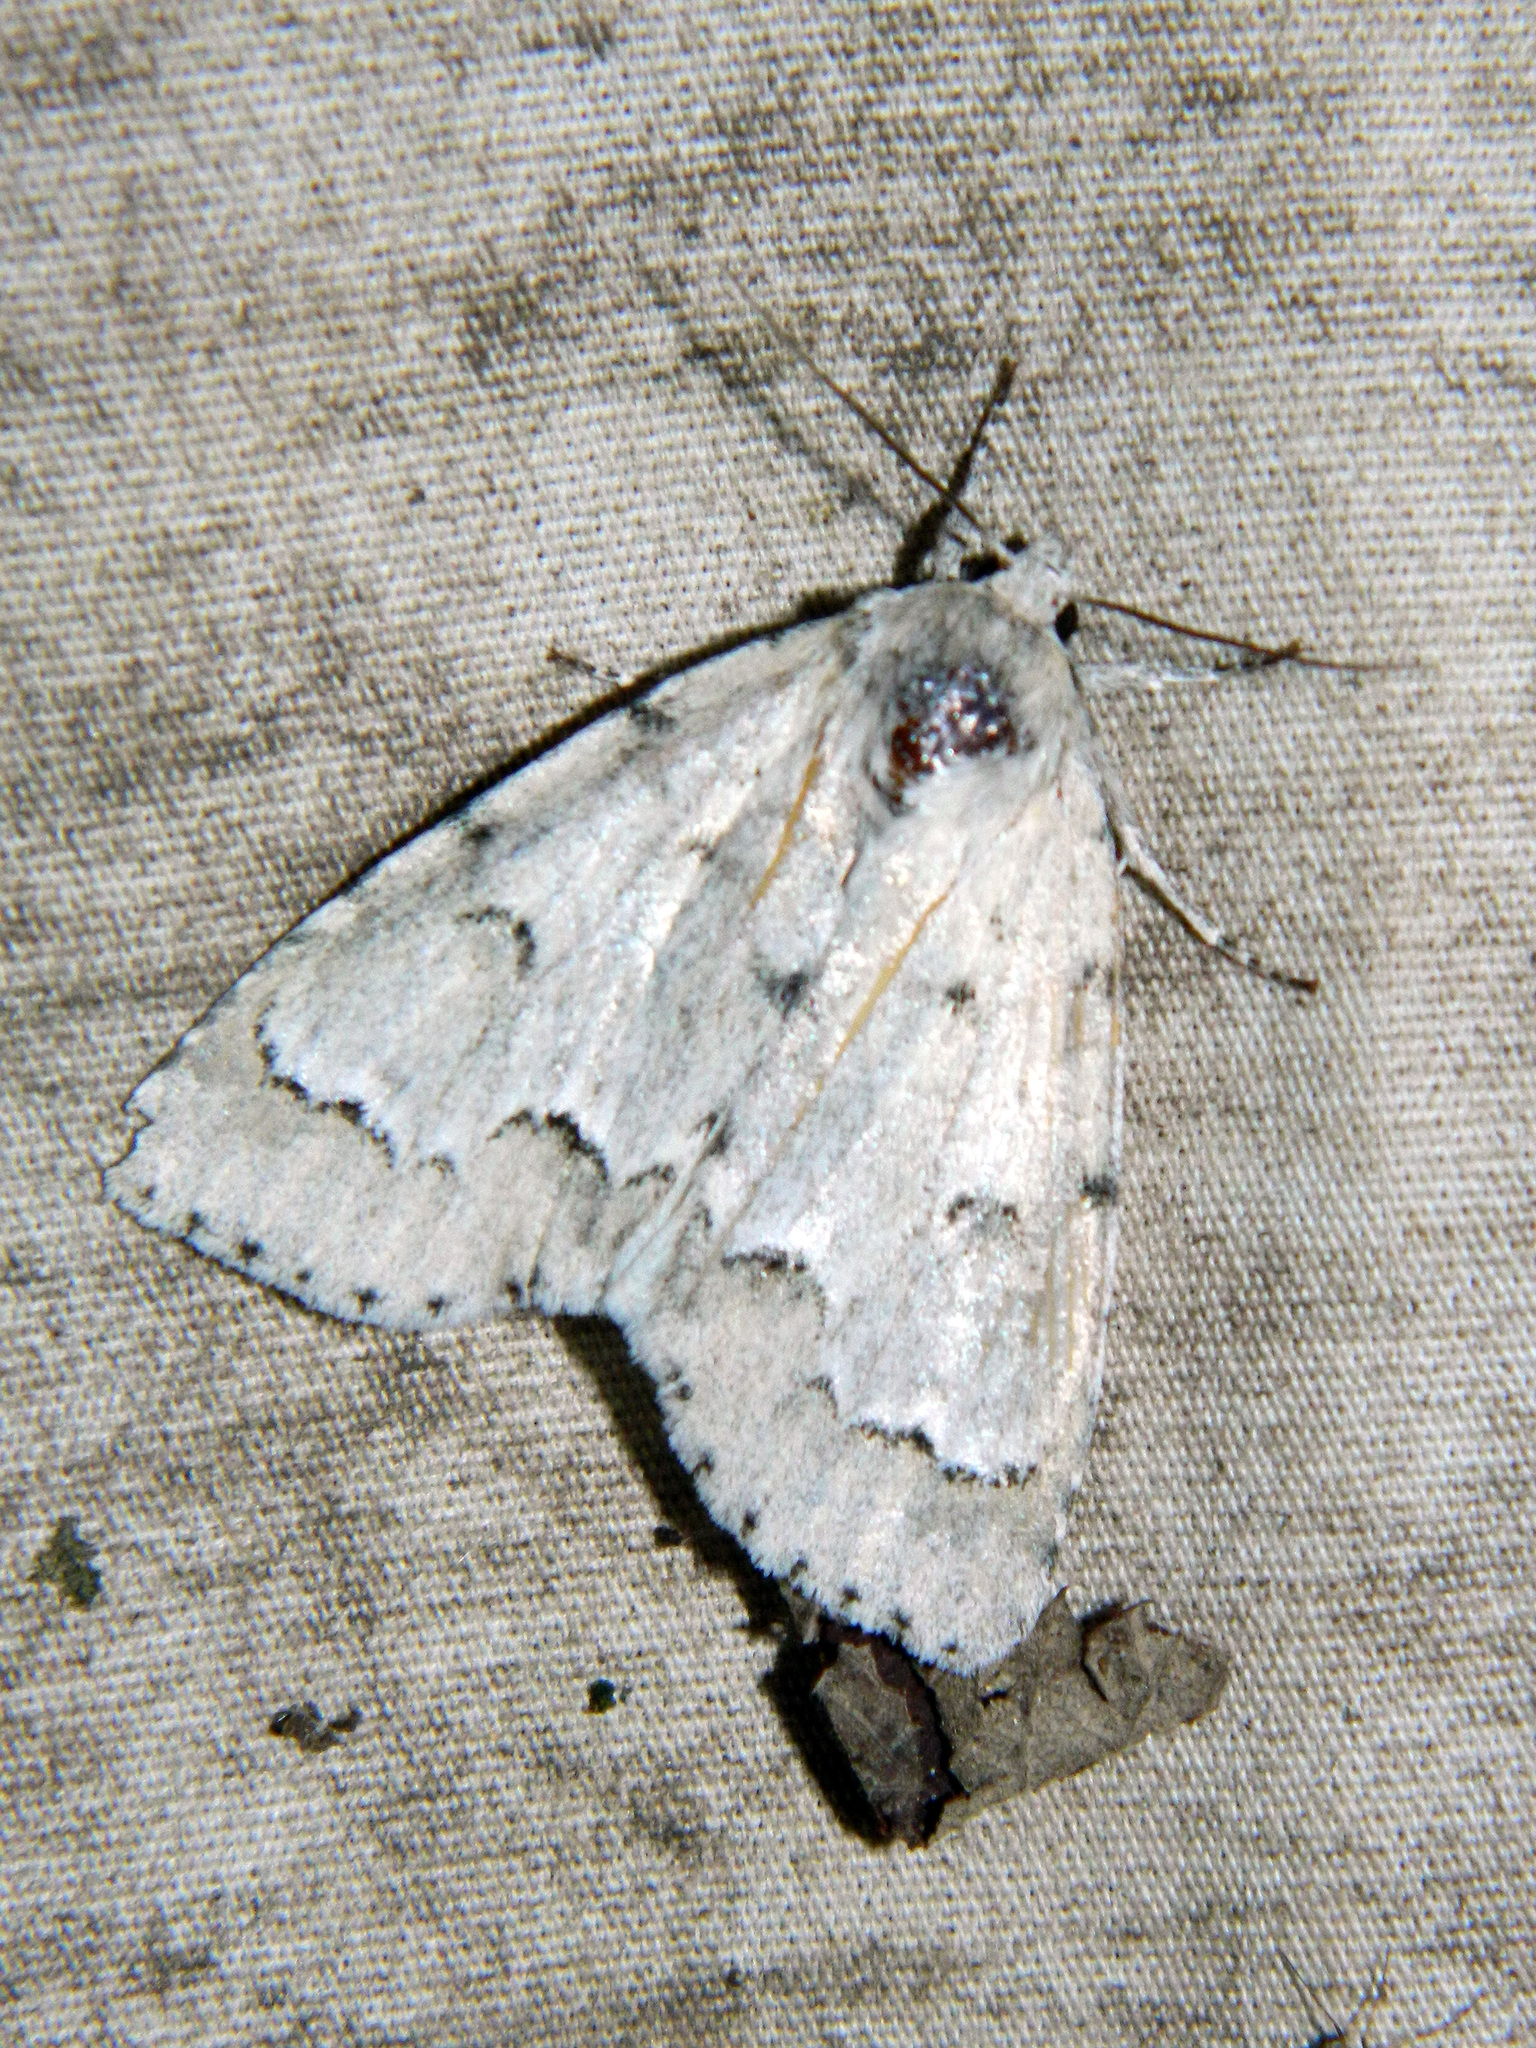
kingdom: Animalia
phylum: Arthropoda
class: Insecta
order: Lepidoptera
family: Noctuidae
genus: Acronicta
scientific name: Acronicta innotata
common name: Unmarked dagger
